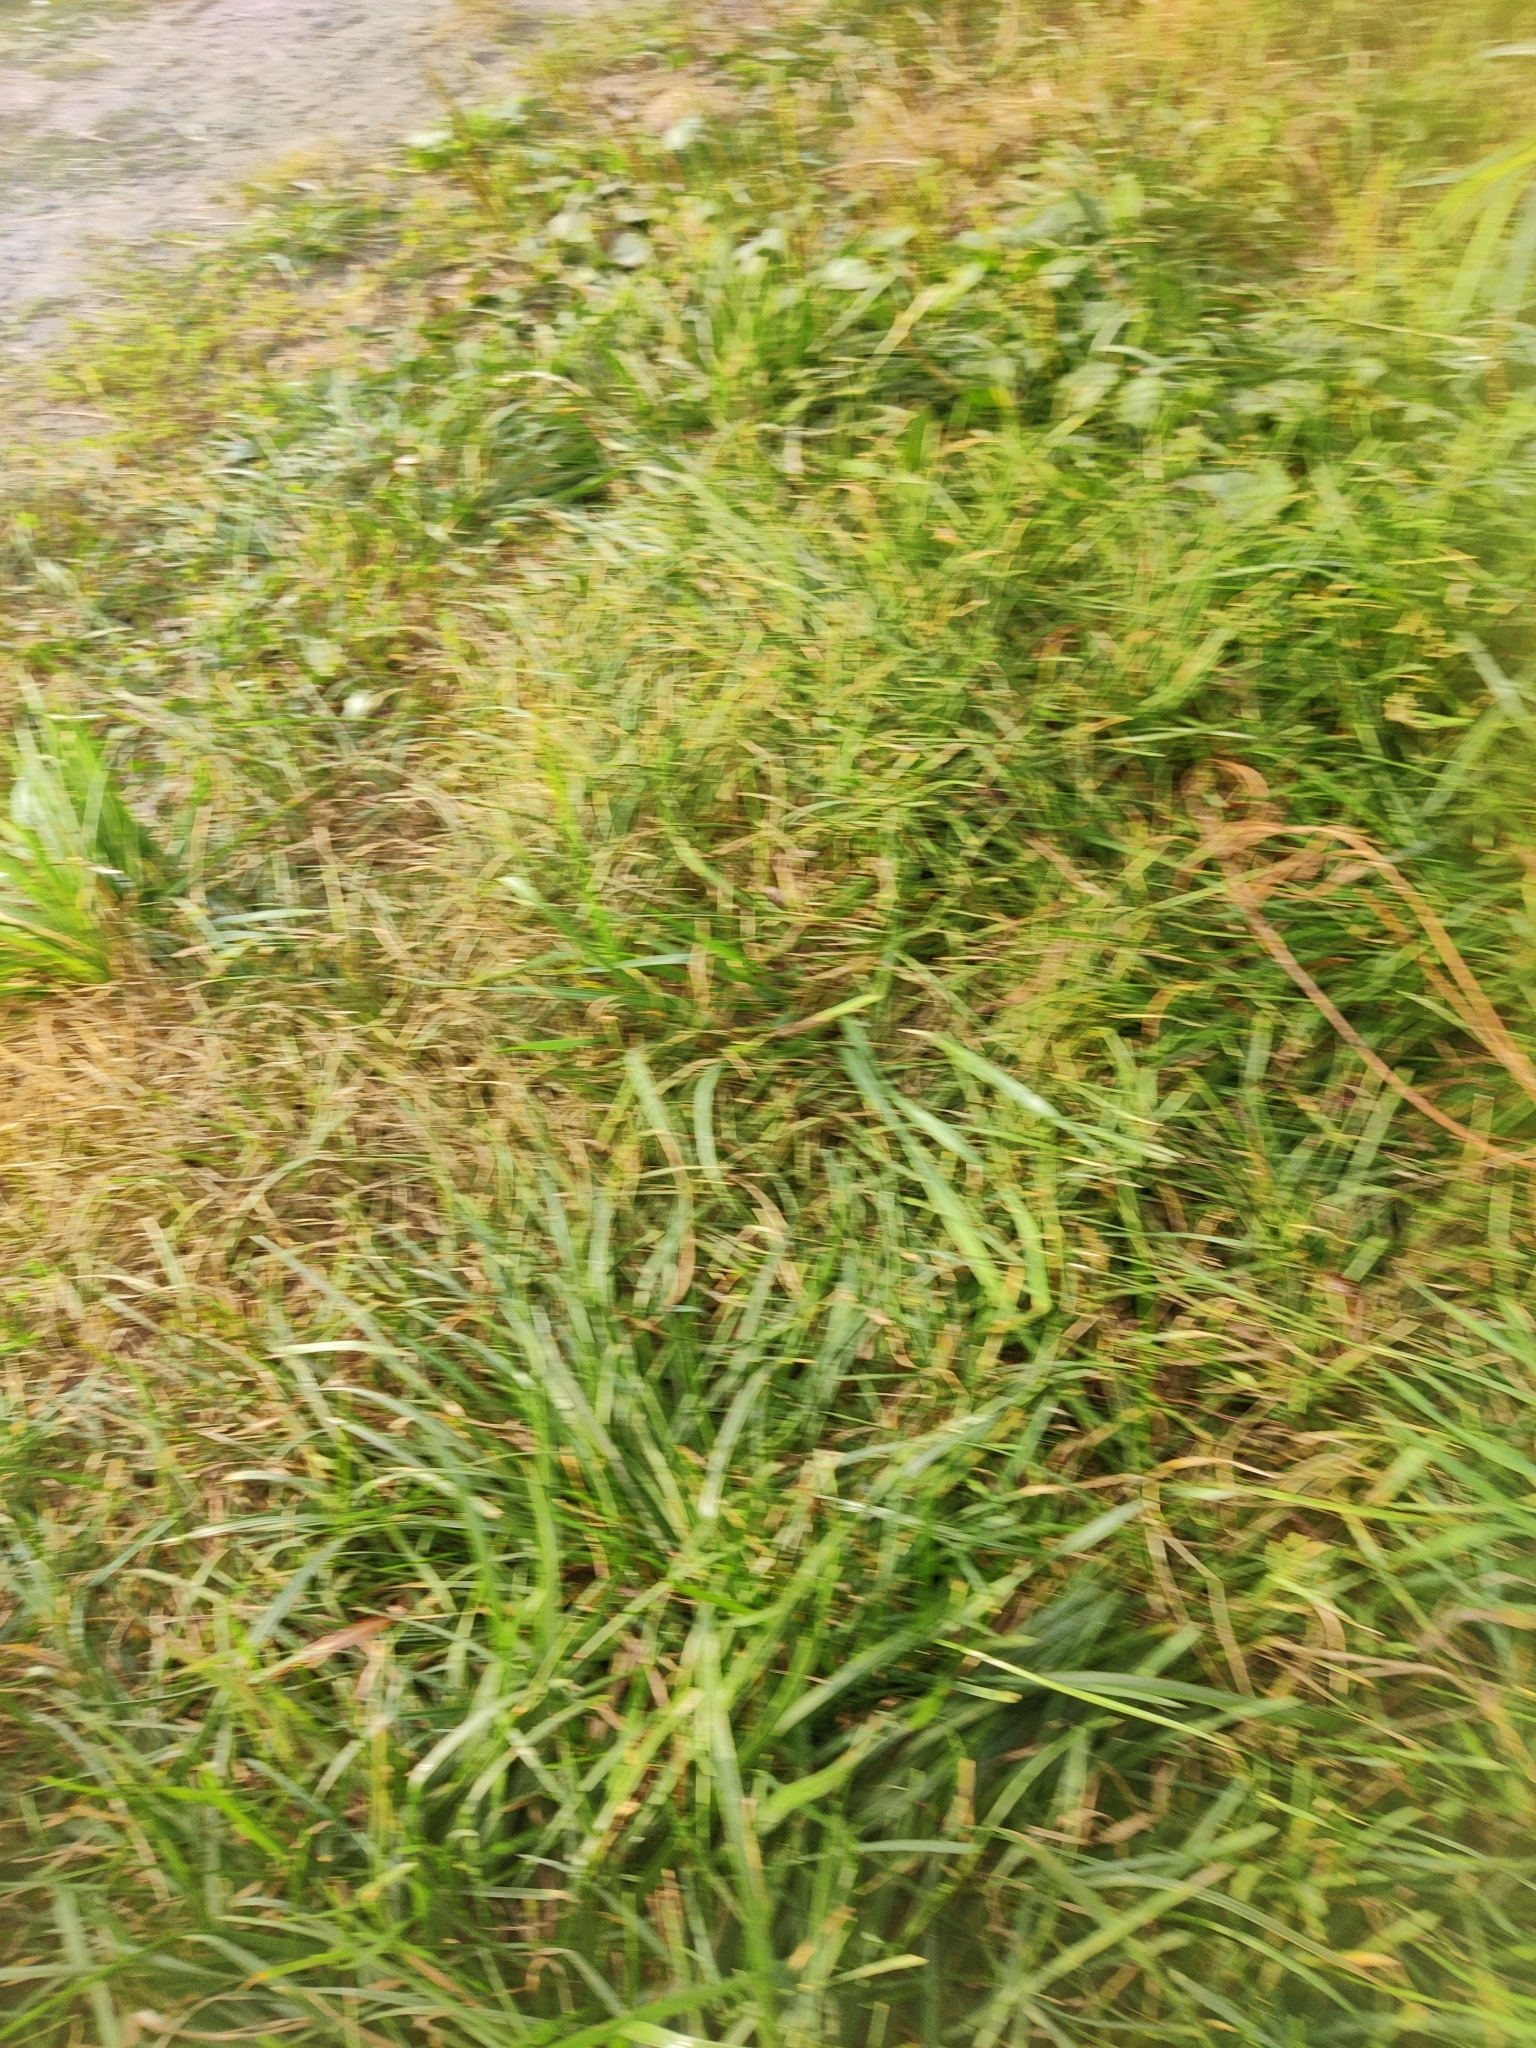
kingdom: Plantae
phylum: Tracheophyta
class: Liliopsida
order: Poales
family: Poaceae
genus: Lolium
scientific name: Lolium perenne
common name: Perennial ryegrass
